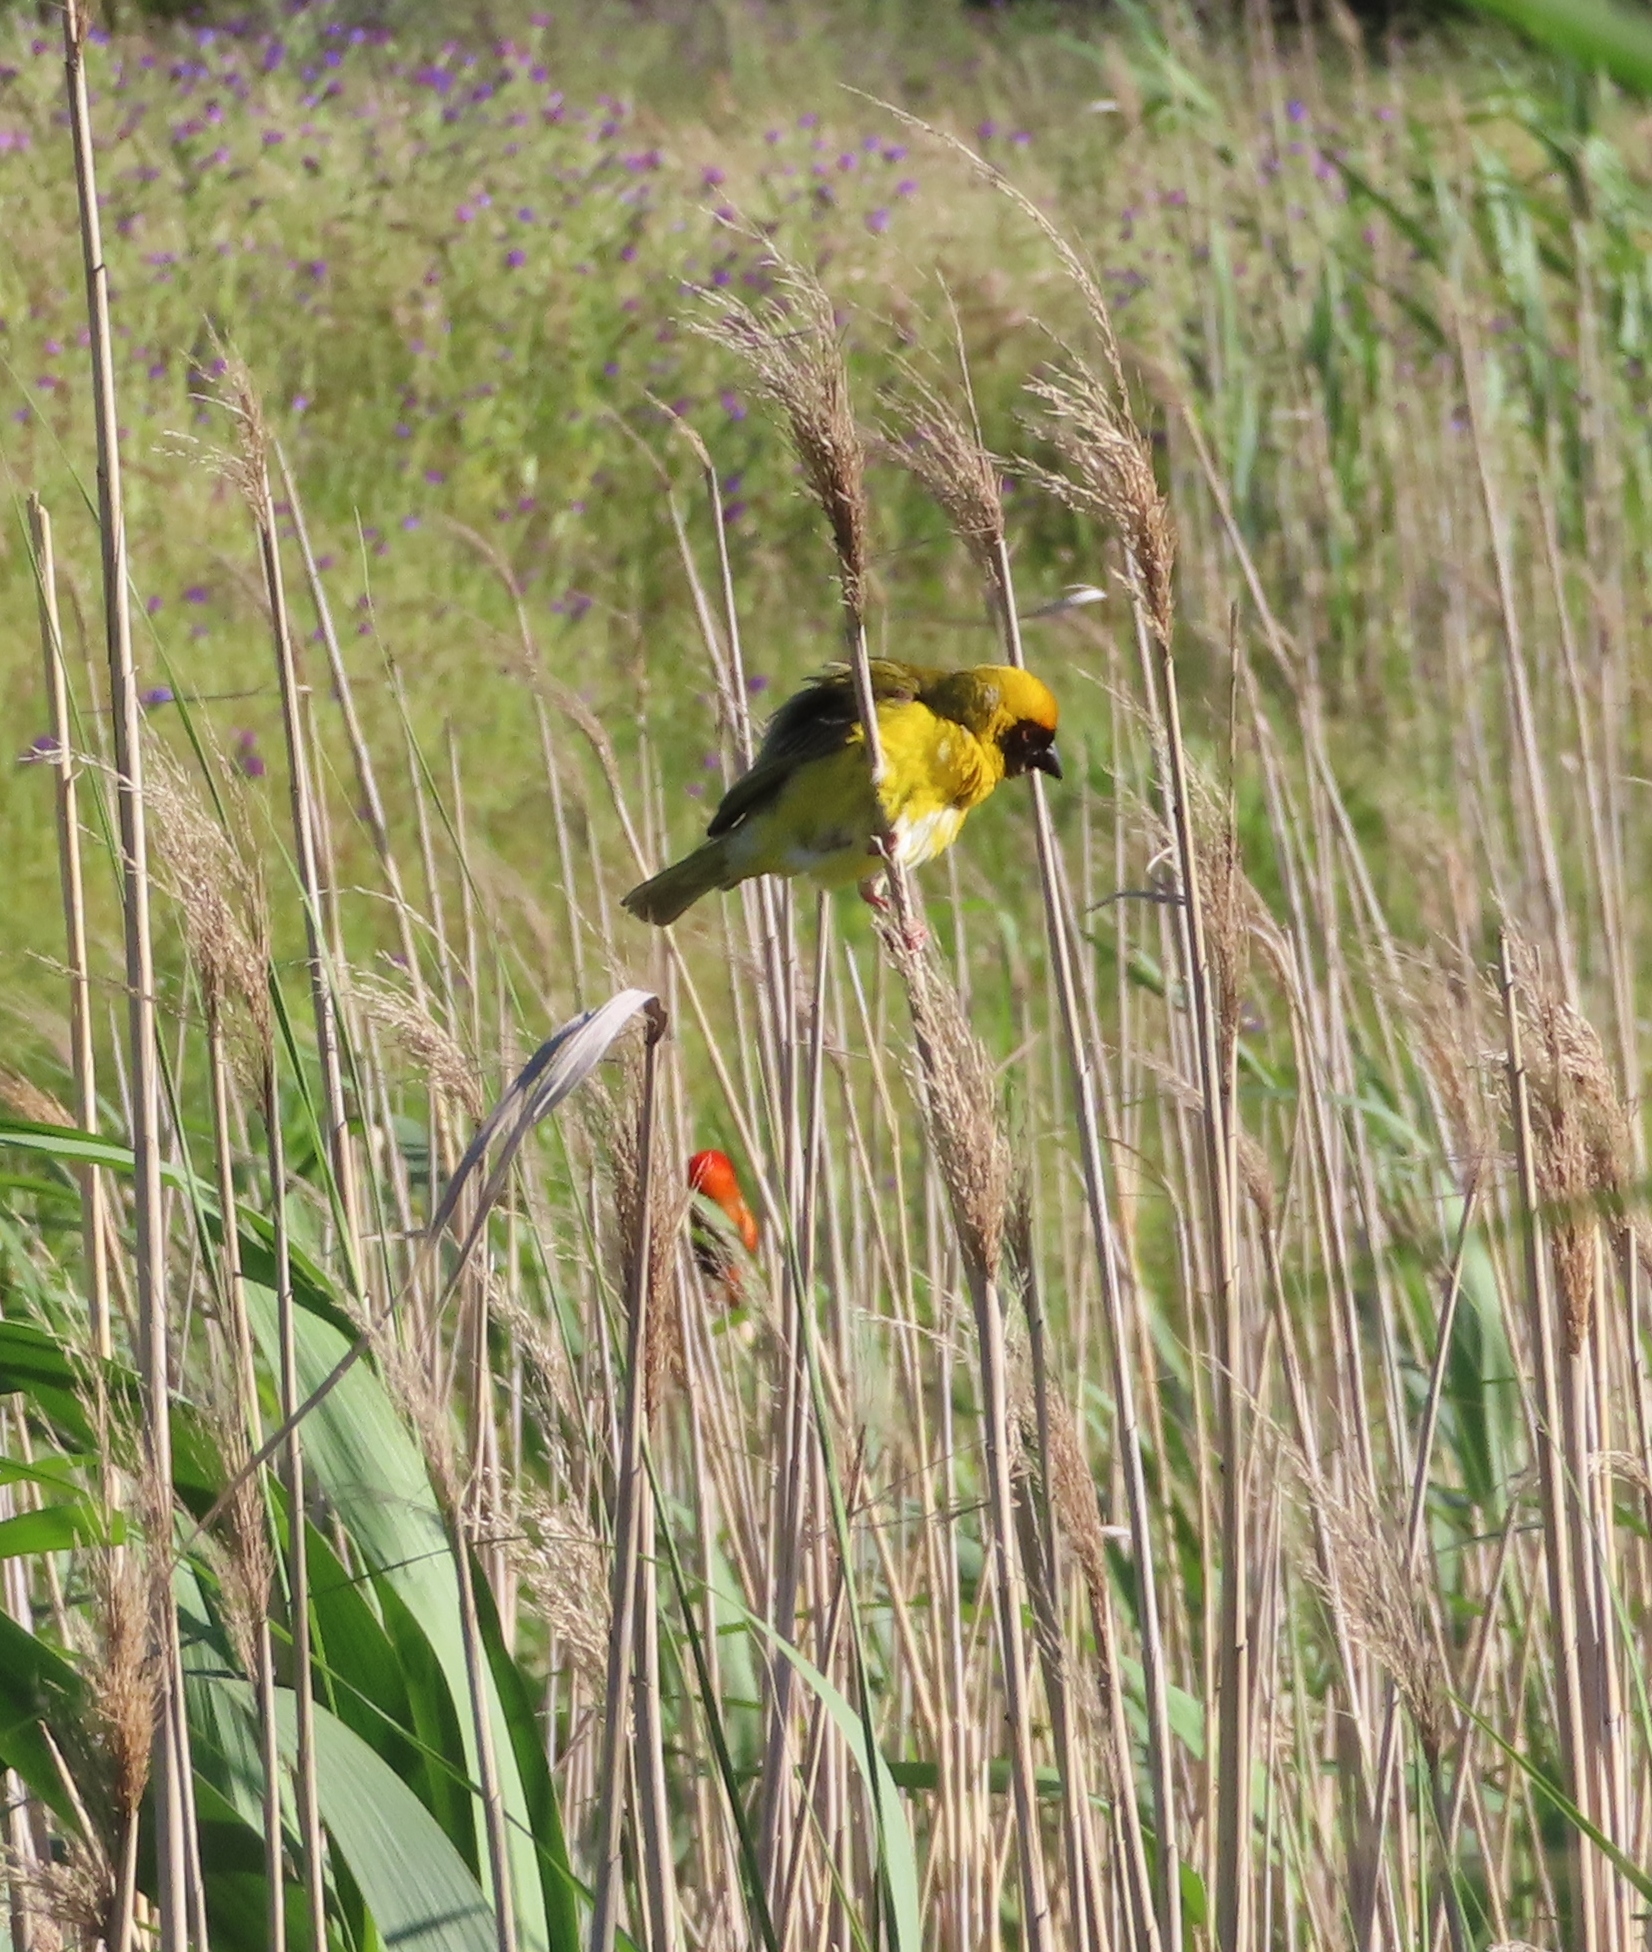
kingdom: Animalia
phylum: Chordata
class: Aves
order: Passeriformes
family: Ploceidae
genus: Ploceus
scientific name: Ploceus velatus
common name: Southern masked weaver
